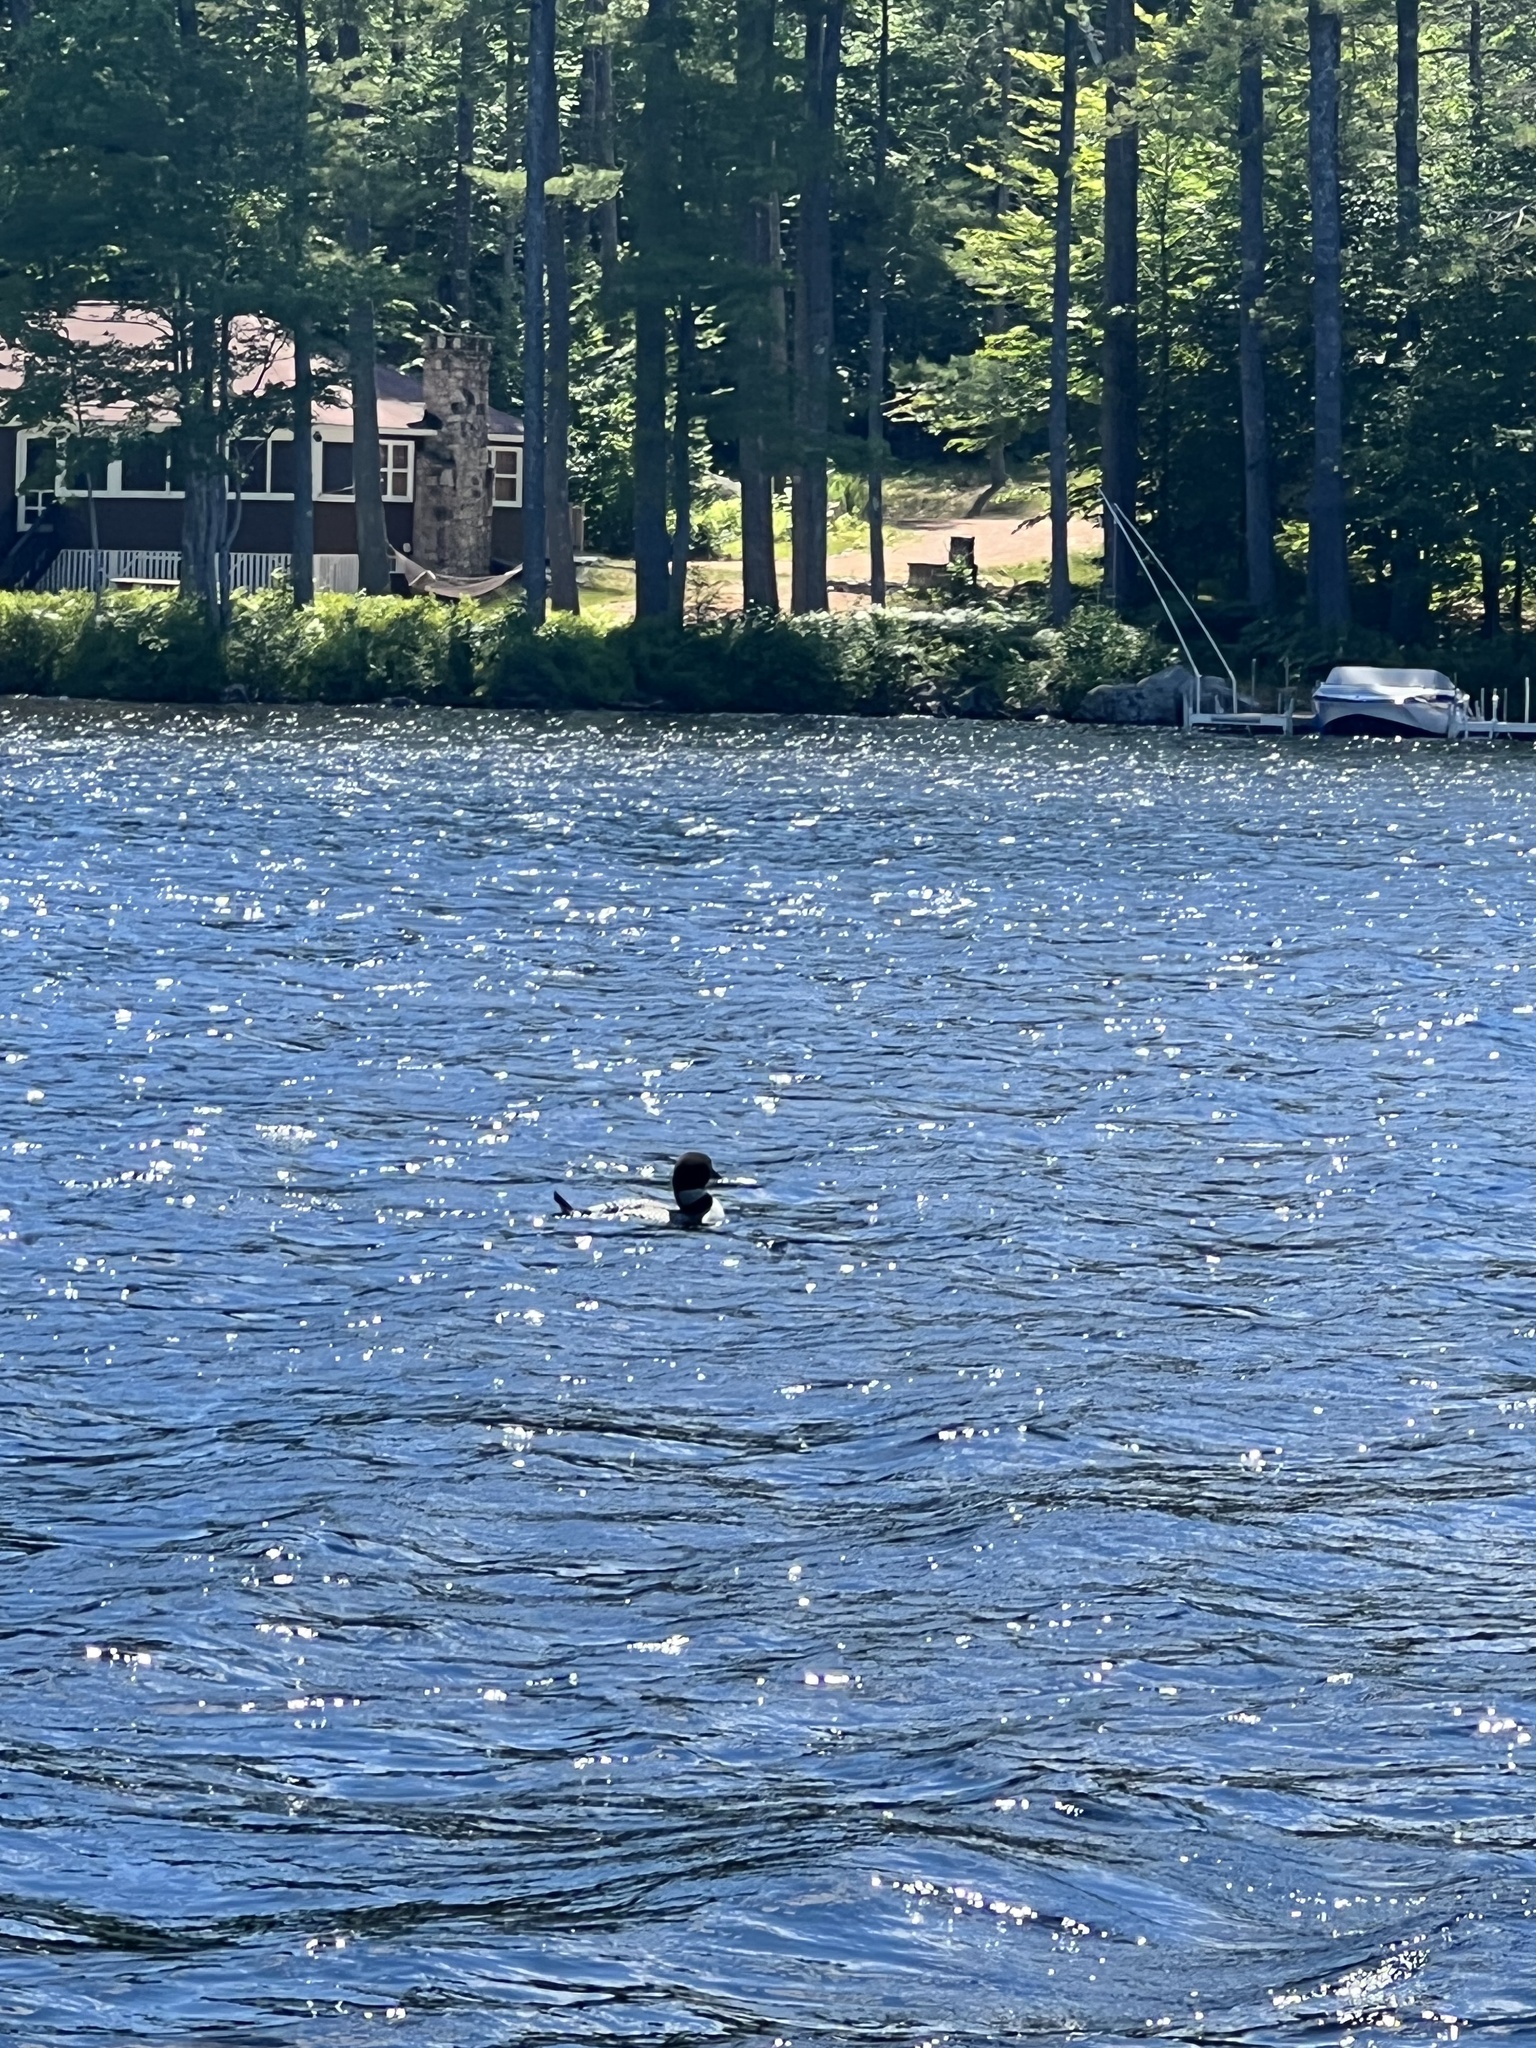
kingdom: Animalia
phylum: Chordata
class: Aves
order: Gaviiformes
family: Gaviidae
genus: Gavia
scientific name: Gavia immer
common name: Common loon
